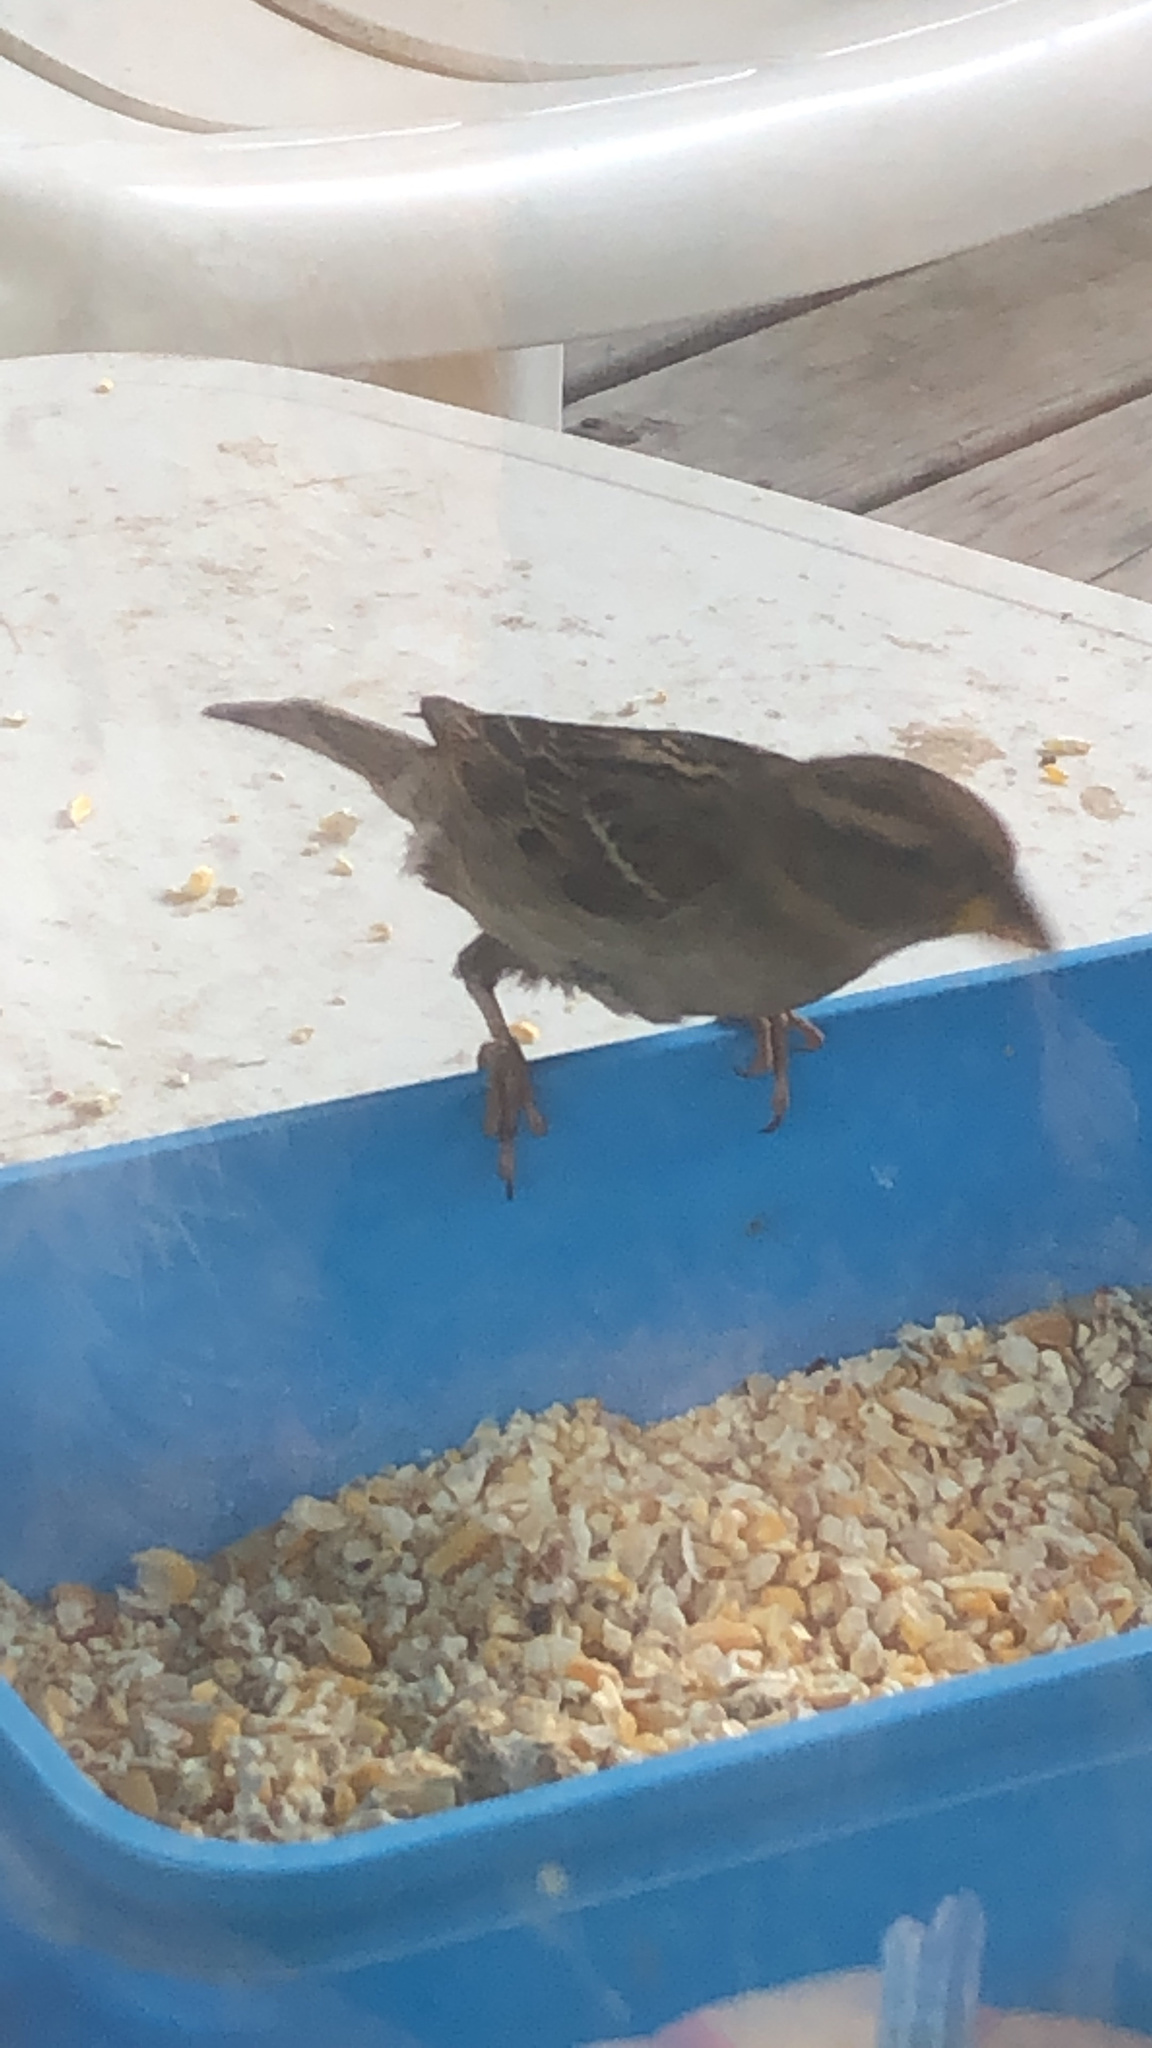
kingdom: Animalia
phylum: Chordata
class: Aves
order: Passeriformes
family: Passeridae
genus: Passer
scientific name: Passer domesticus
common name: House sparrow
